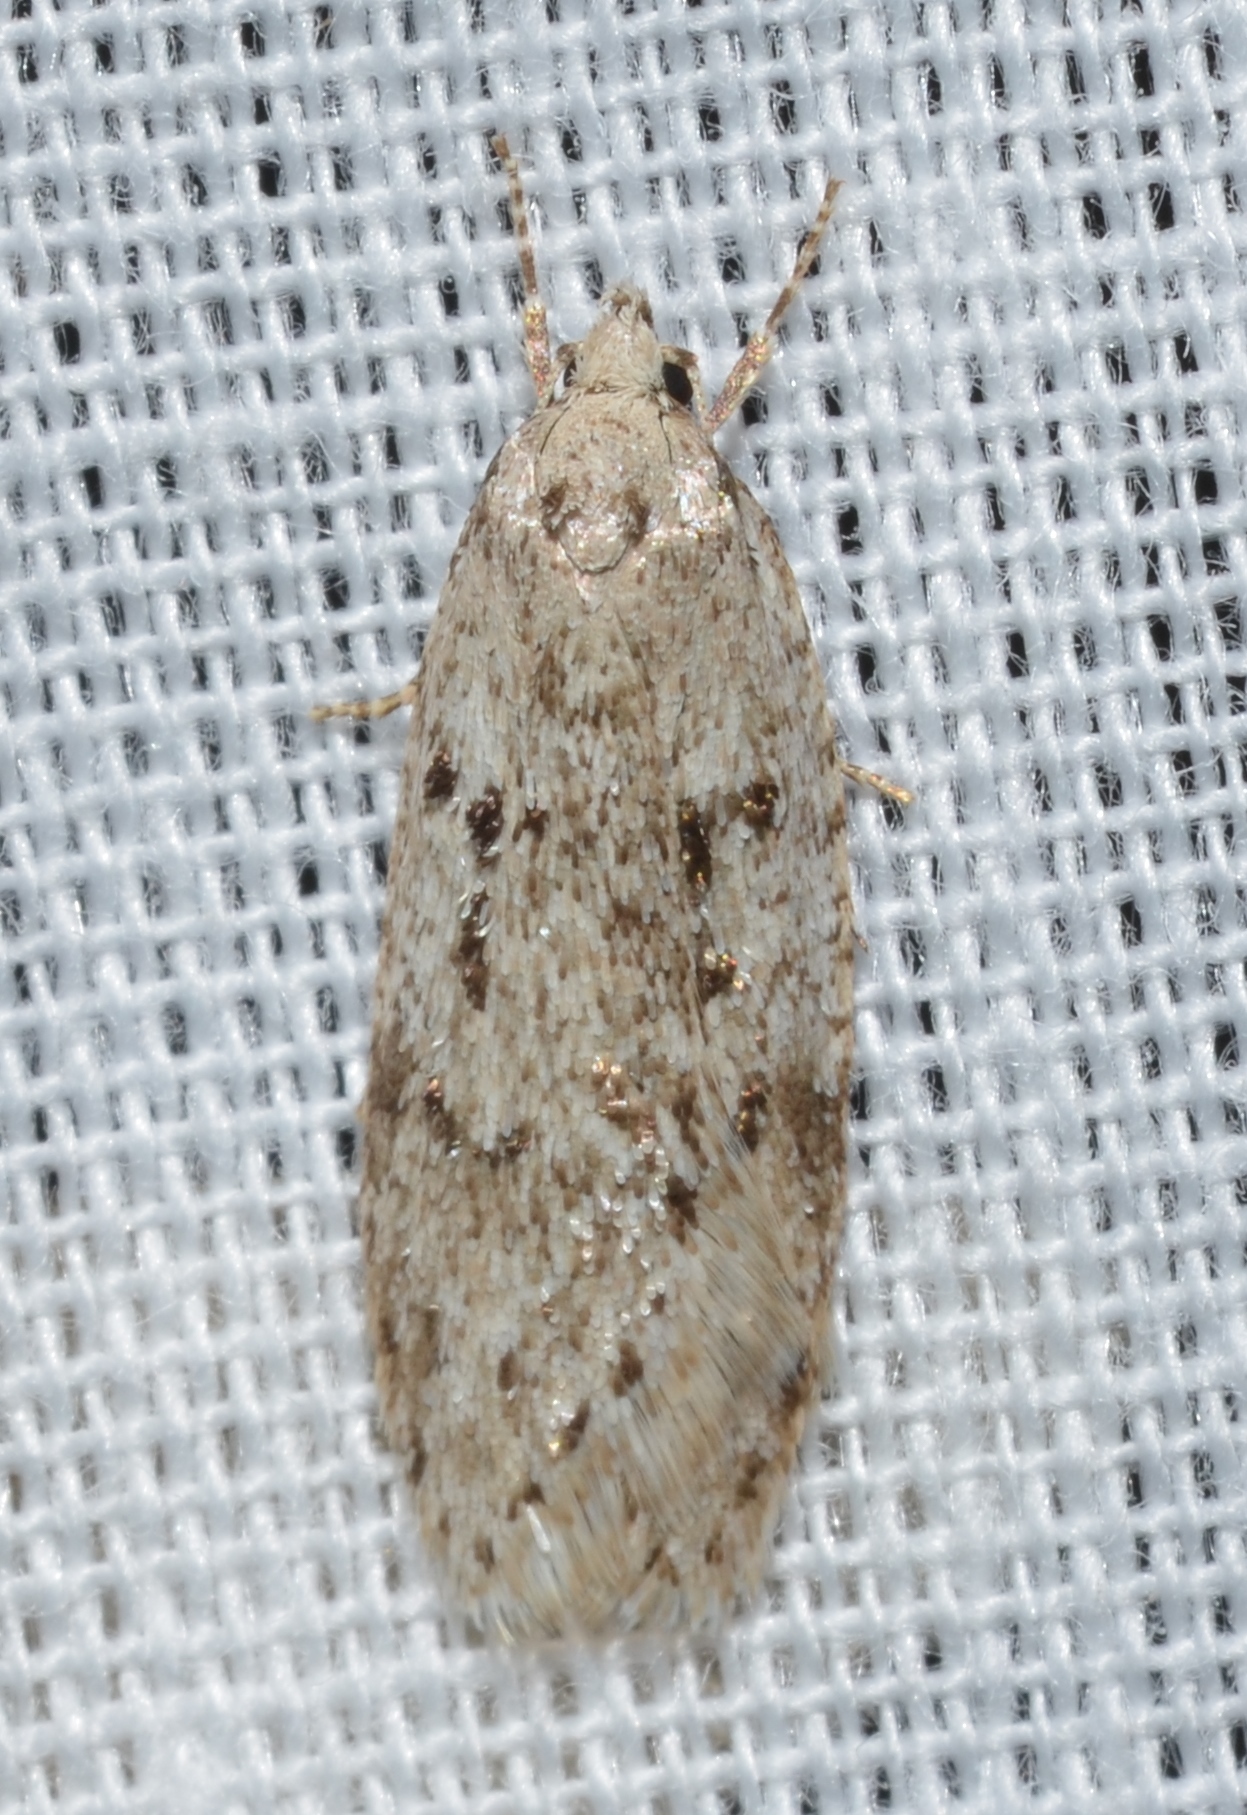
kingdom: Animalia
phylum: Arthropoda
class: Insecta
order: Lepidoptera
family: Depressariidae
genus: Semioscopis
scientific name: Semioscopis megamicrella
